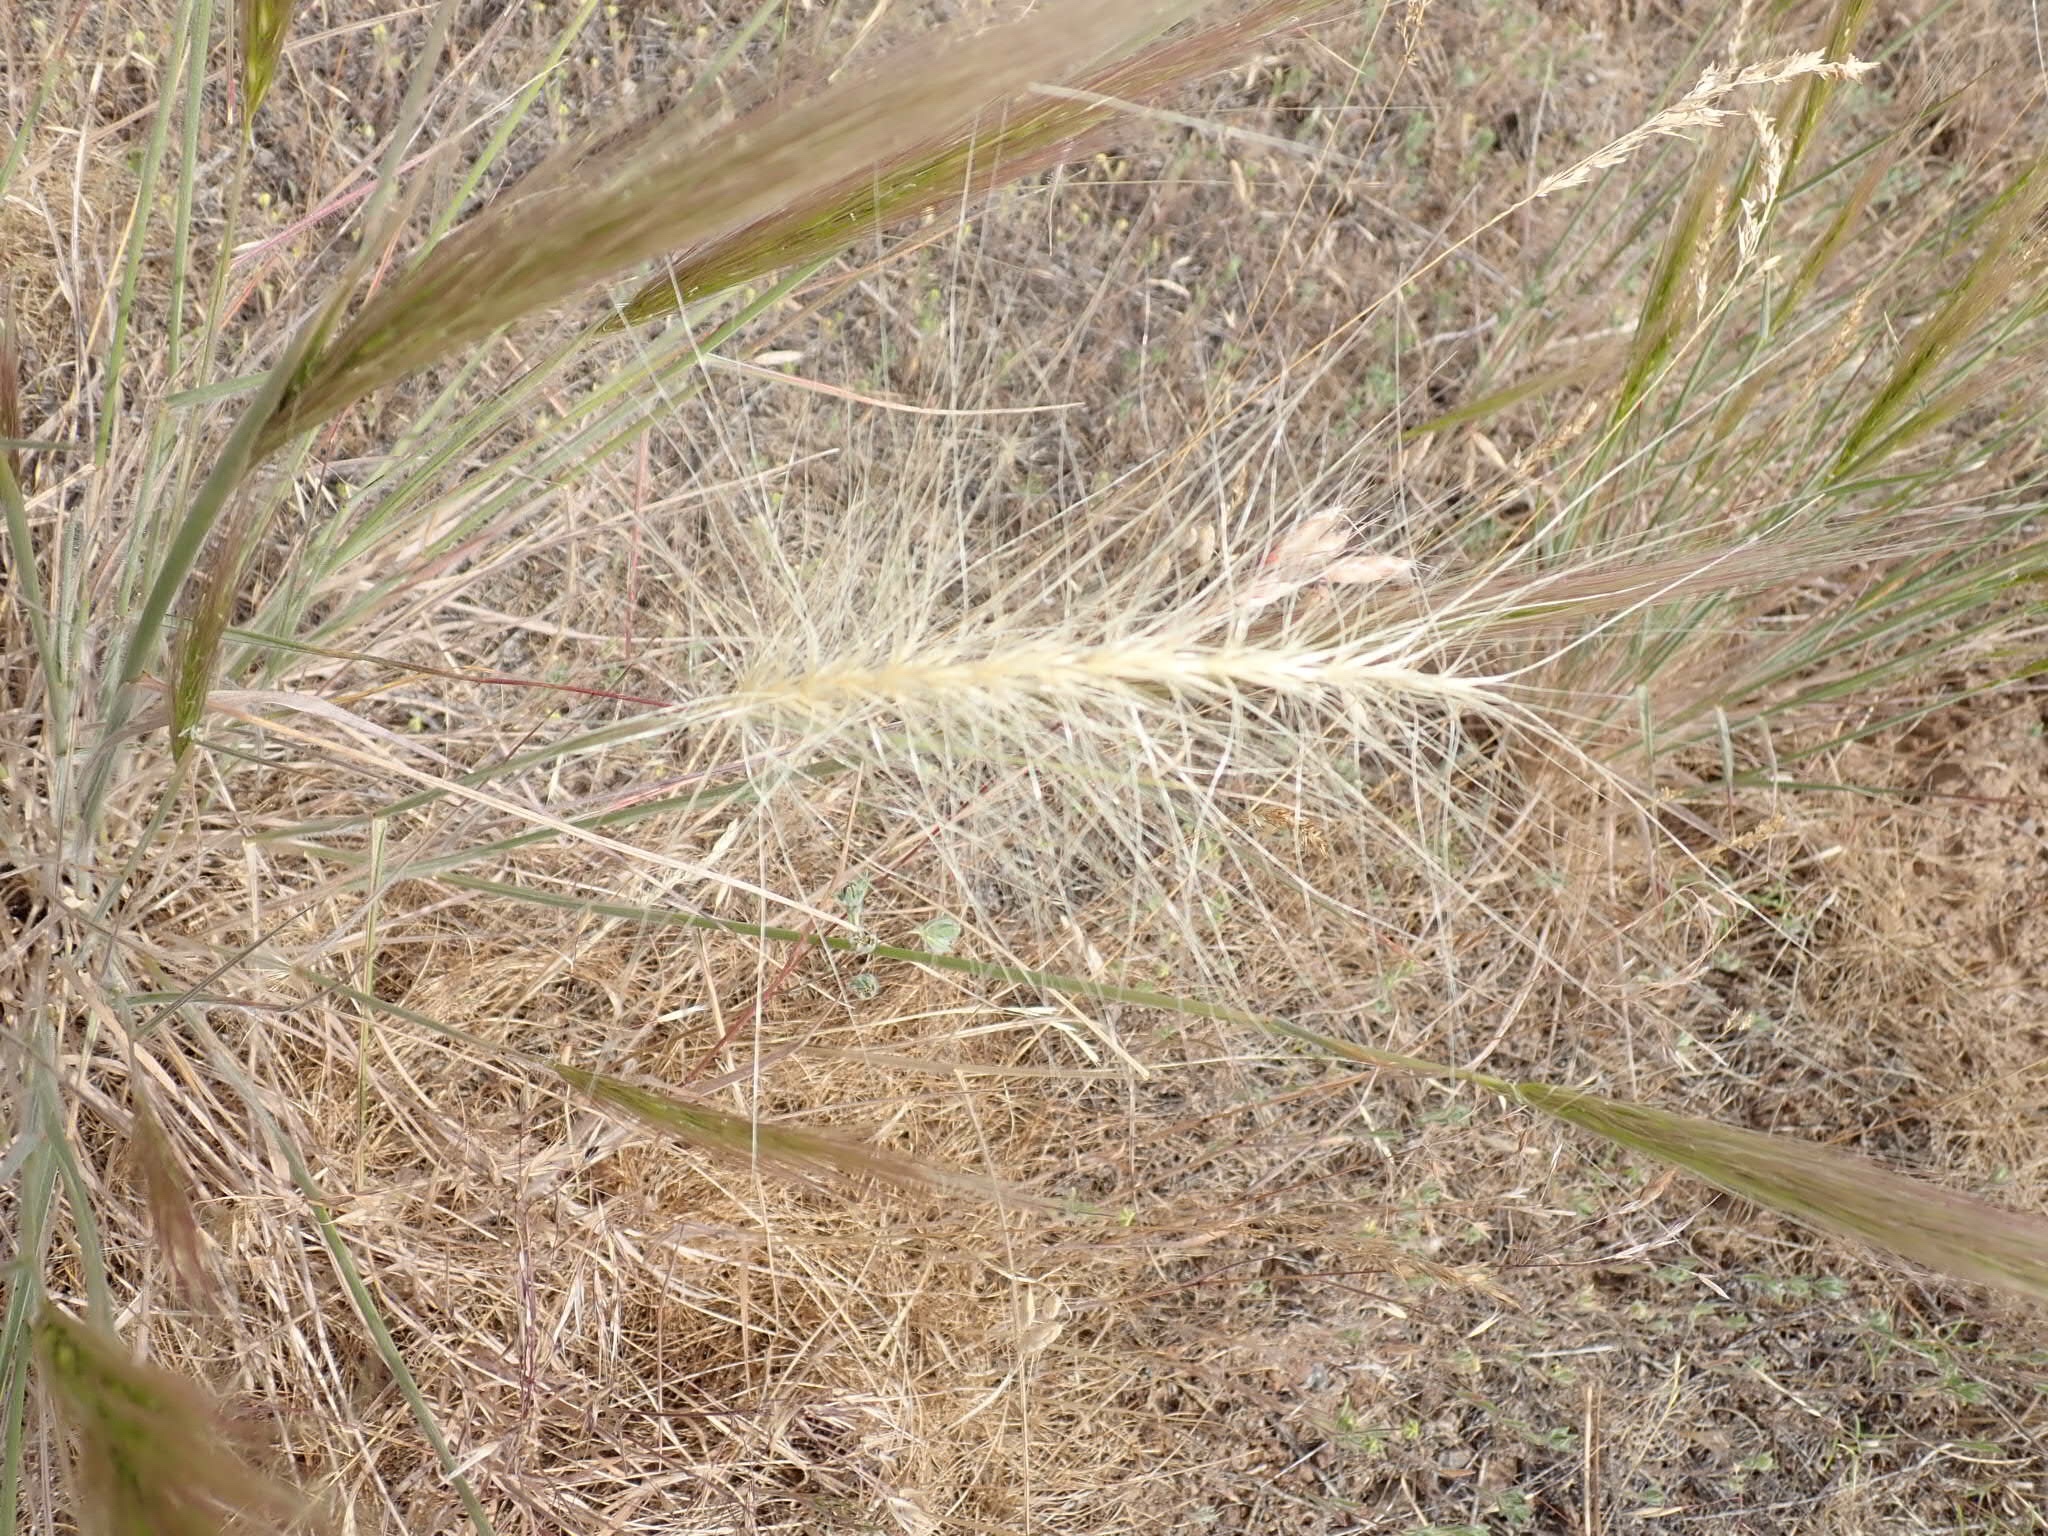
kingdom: Plantae
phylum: Tracheophyta
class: Liliopsida
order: Poales
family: Poaceae
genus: Elymus
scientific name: Elymus elymoides
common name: Bottlebrush squirreltail
